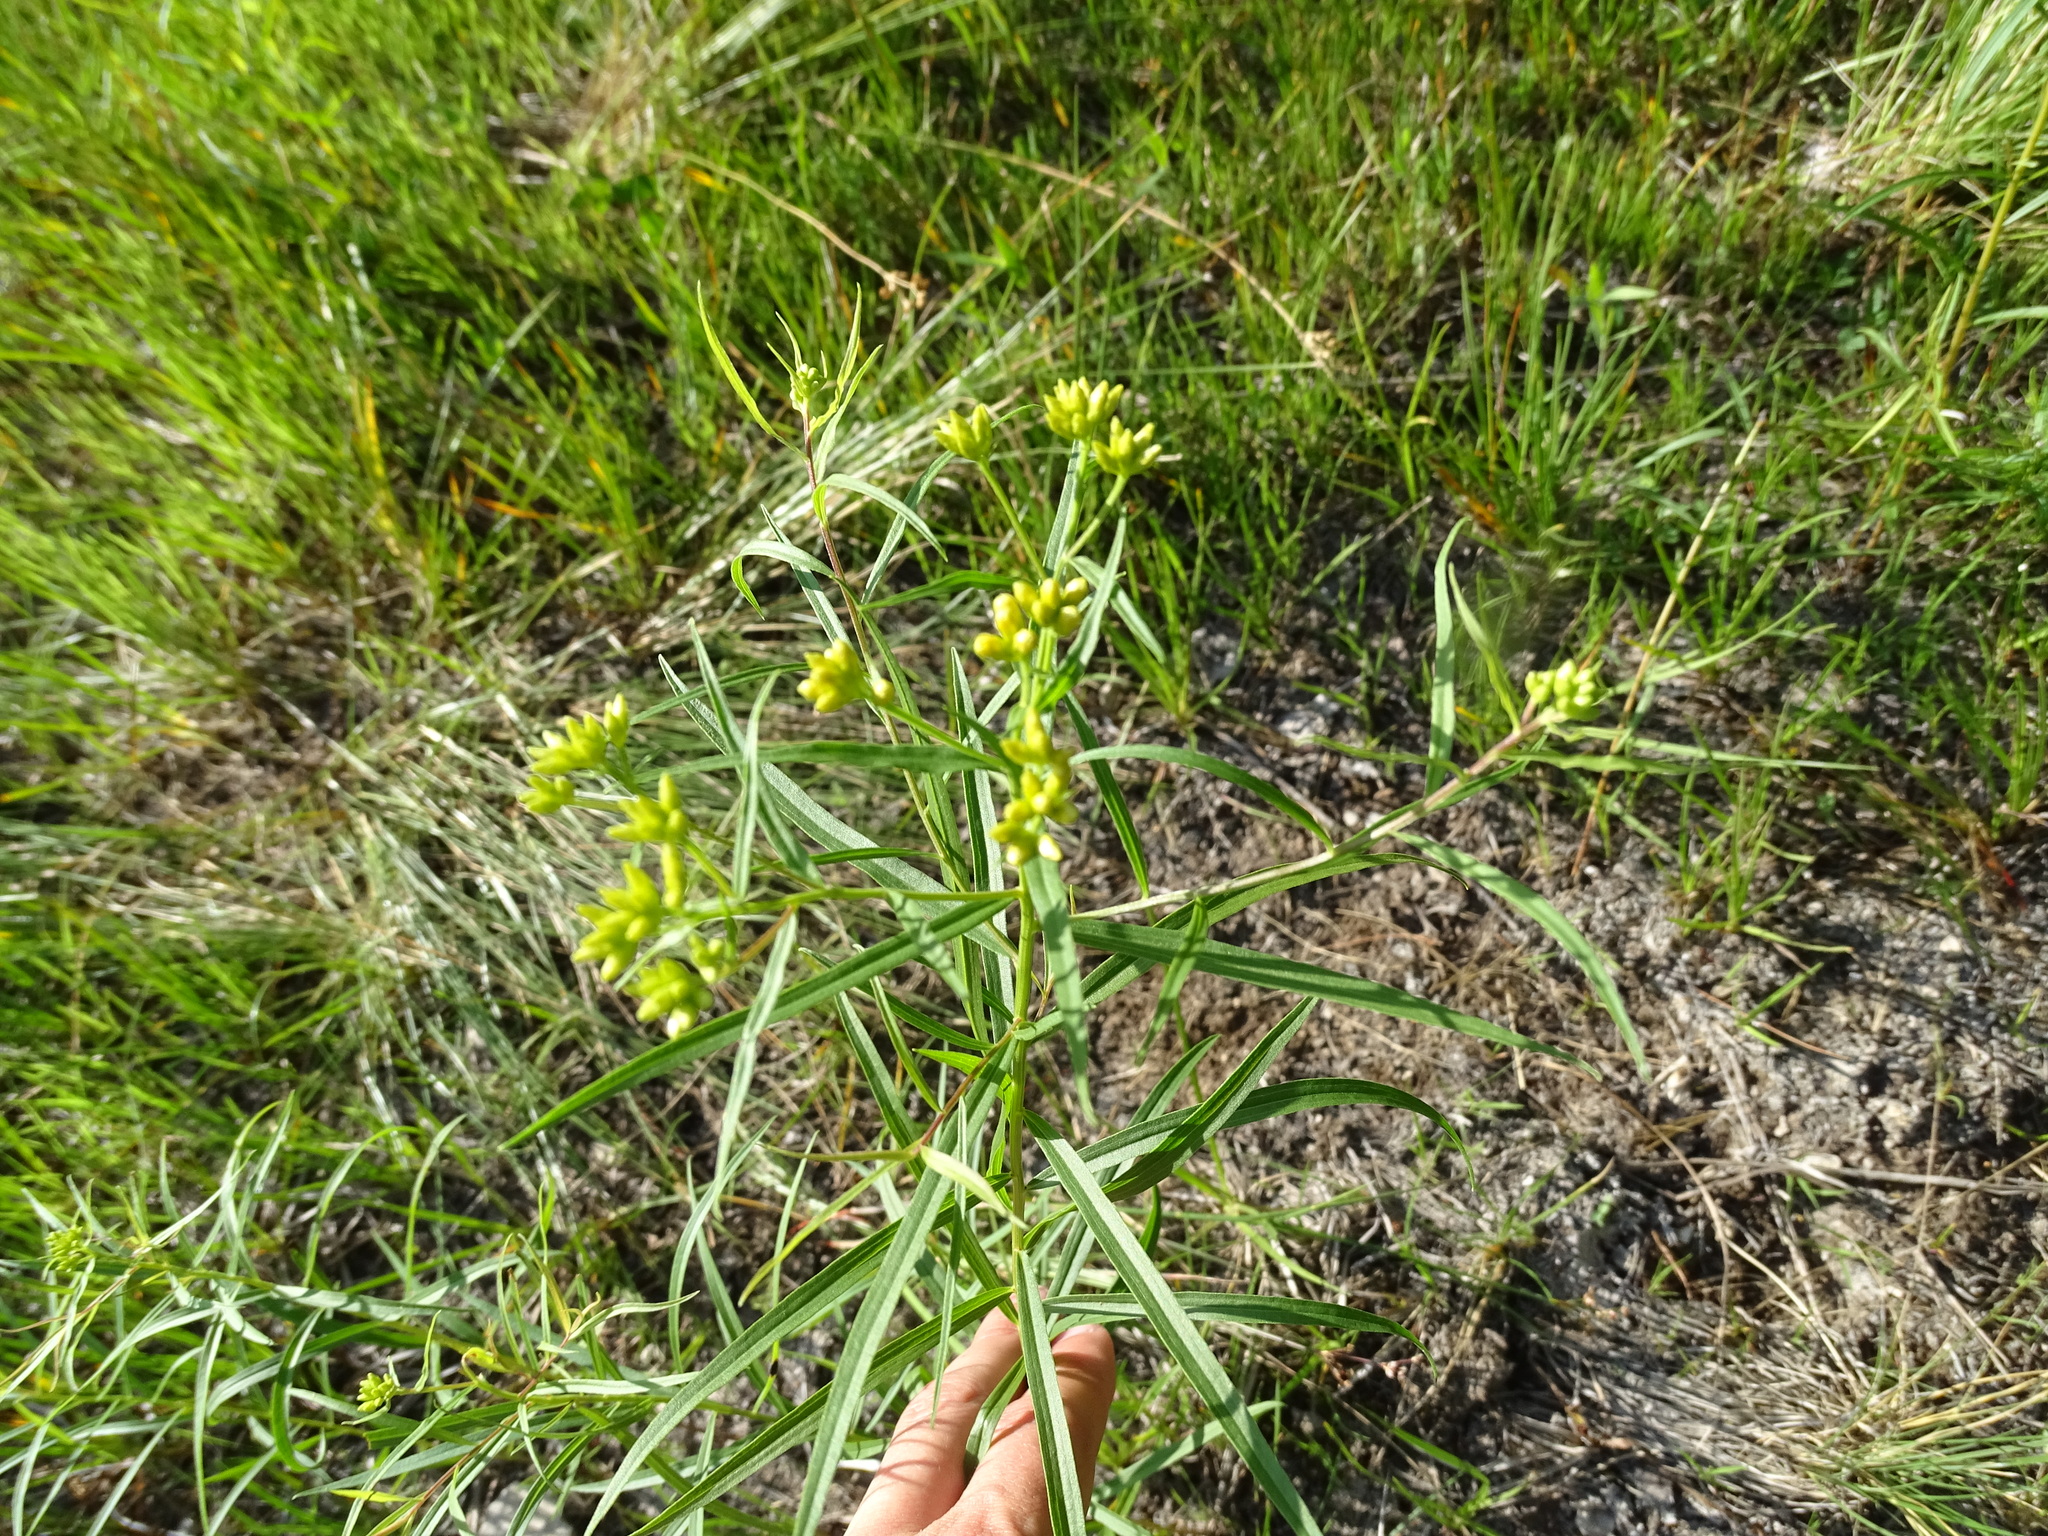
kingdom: Plantae
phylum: Tracheophyta
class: Magnoliopsida
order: Asterales
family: Asteraceae
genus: Euthamia
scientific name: Euthamia graminifolia
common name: Common goldentop
